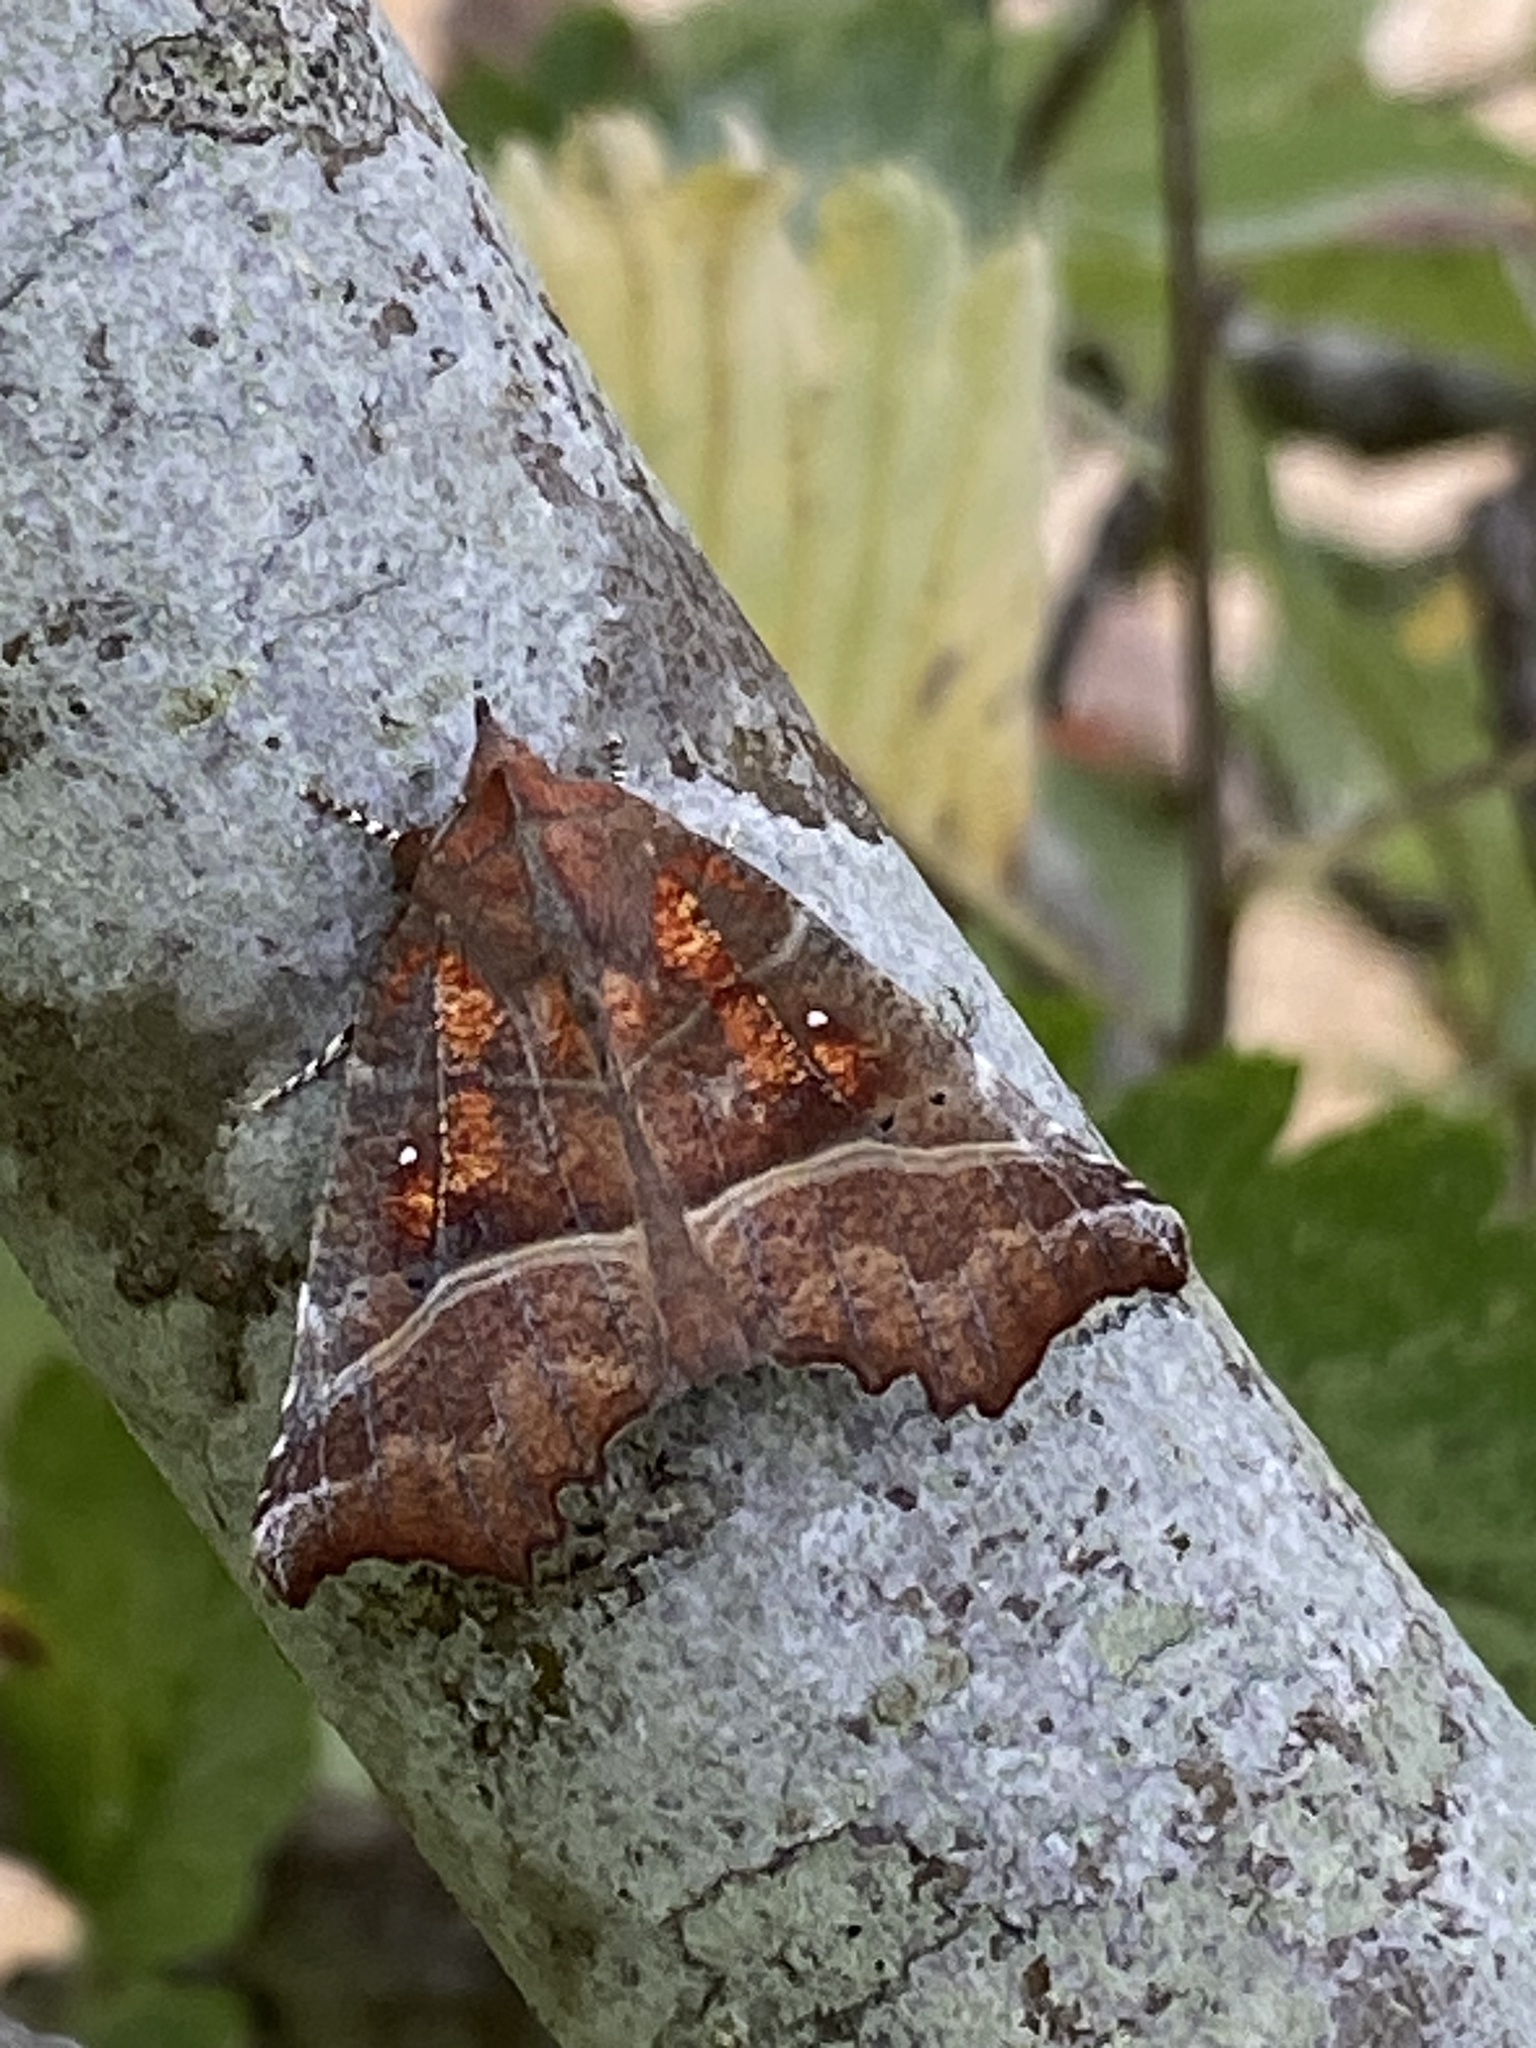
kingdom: Animalia
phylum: Arthropoda
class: Insecta
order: Lepidoptera
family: Erebidae
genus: Scoliopteryx
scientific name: Scoliopteryx libatrix
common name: Herald
